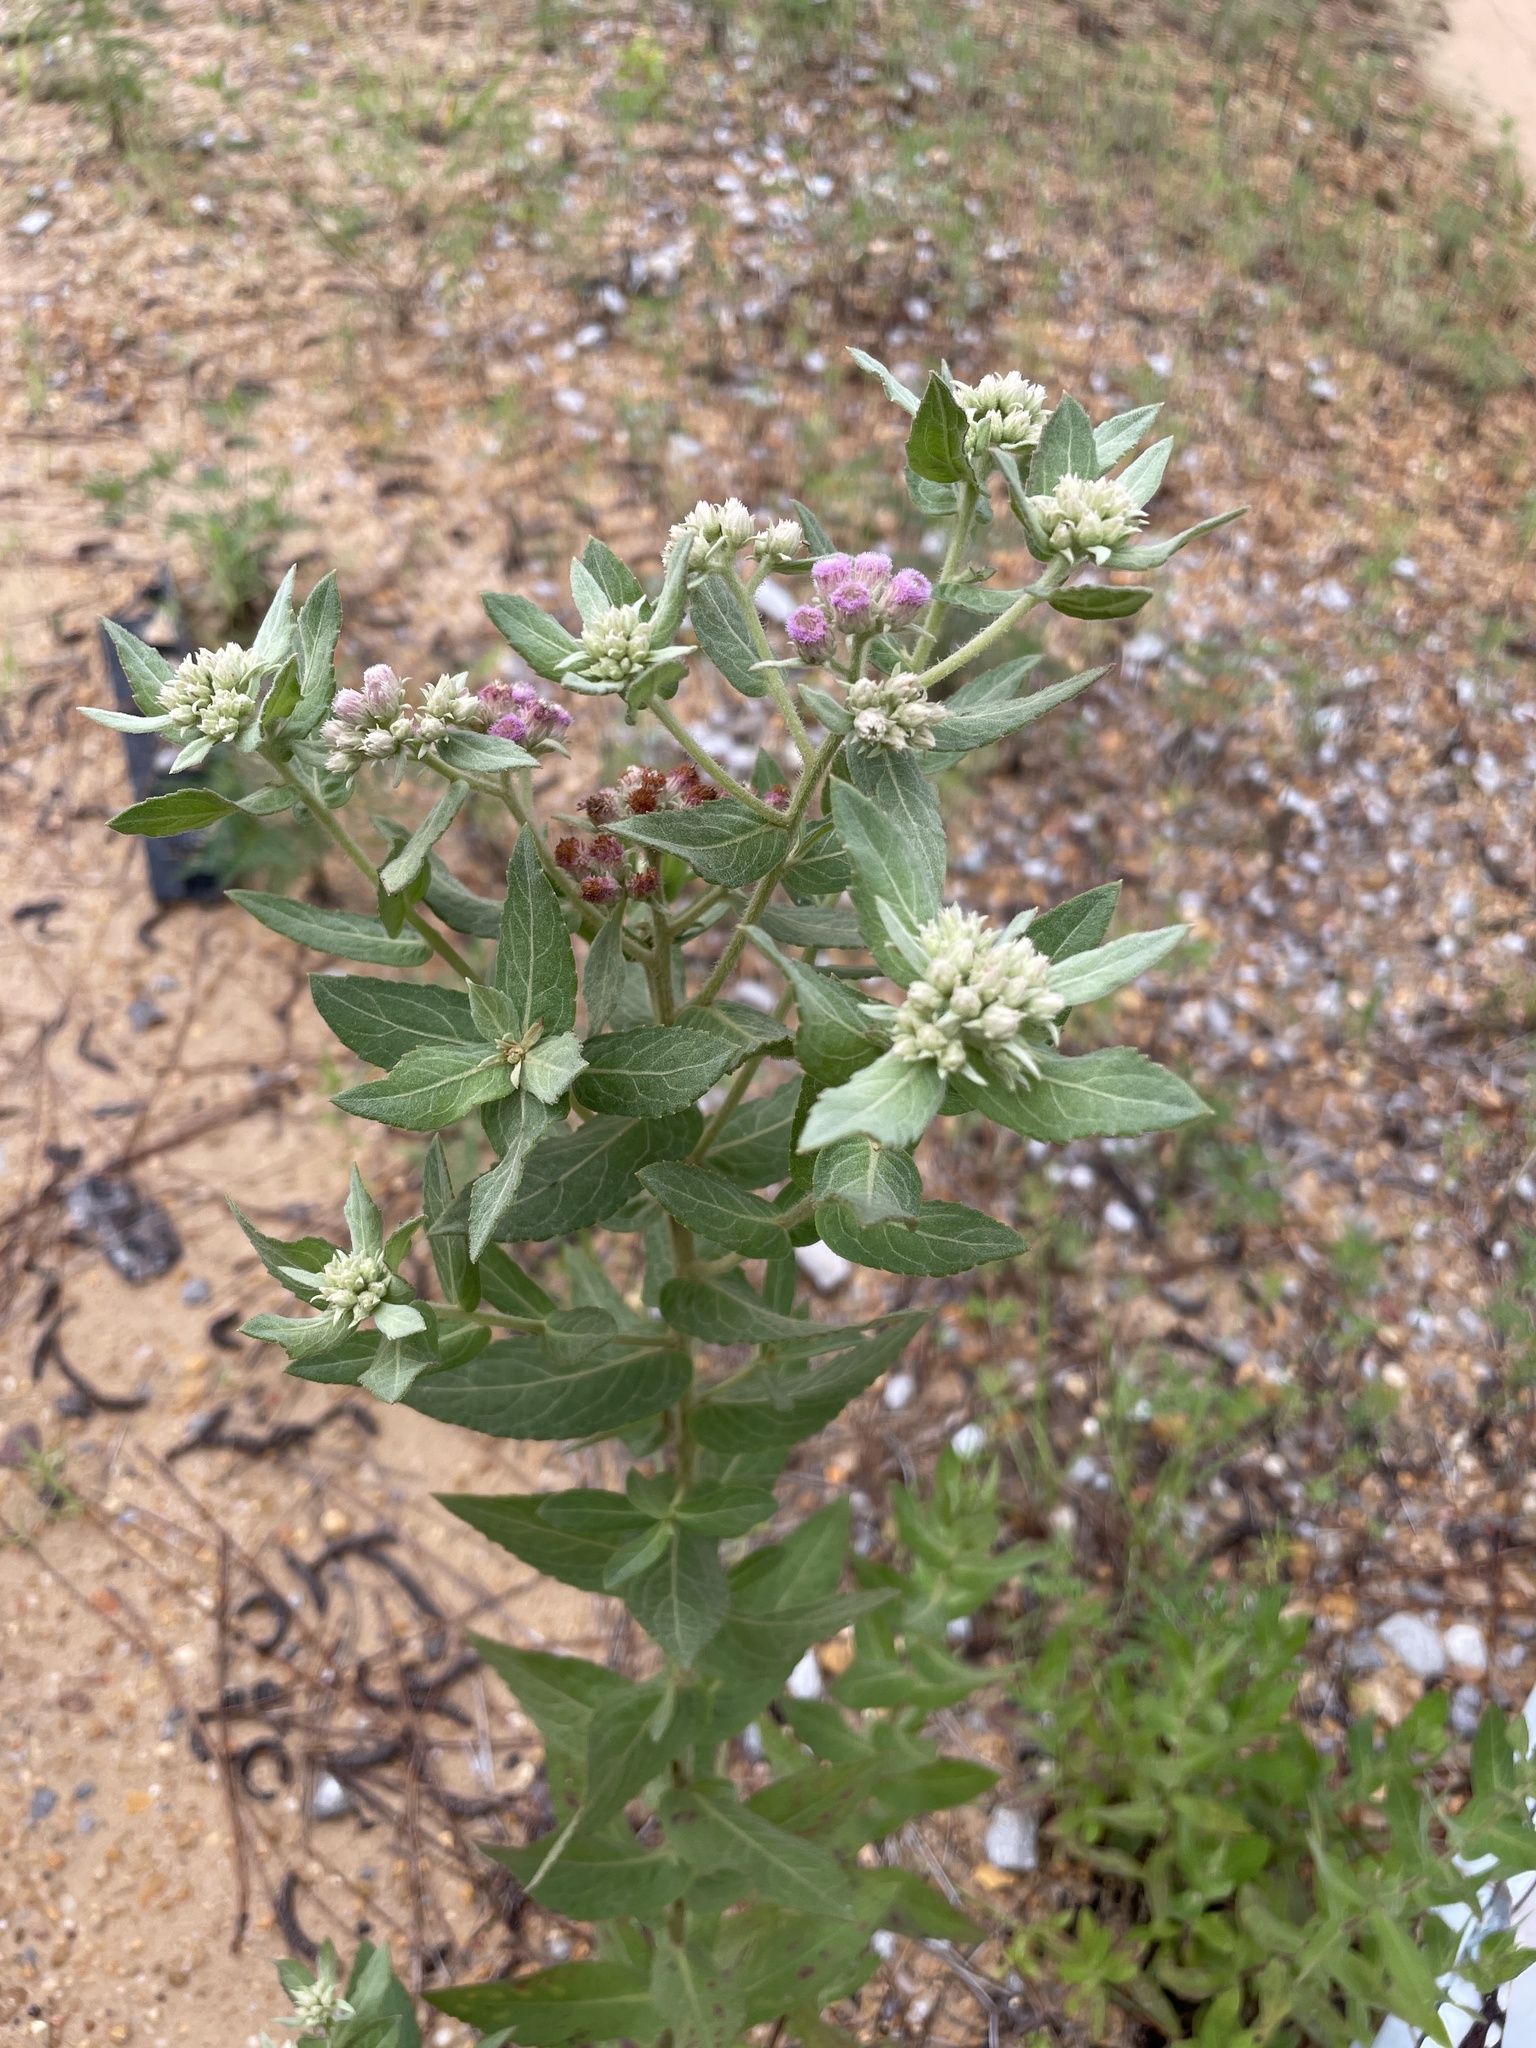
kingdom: Plantae
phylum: Tracheophyta
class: Magnoliopsida
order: Asterales
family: Asteraceae
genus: Pluchea
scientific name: Pluchea baccharis
